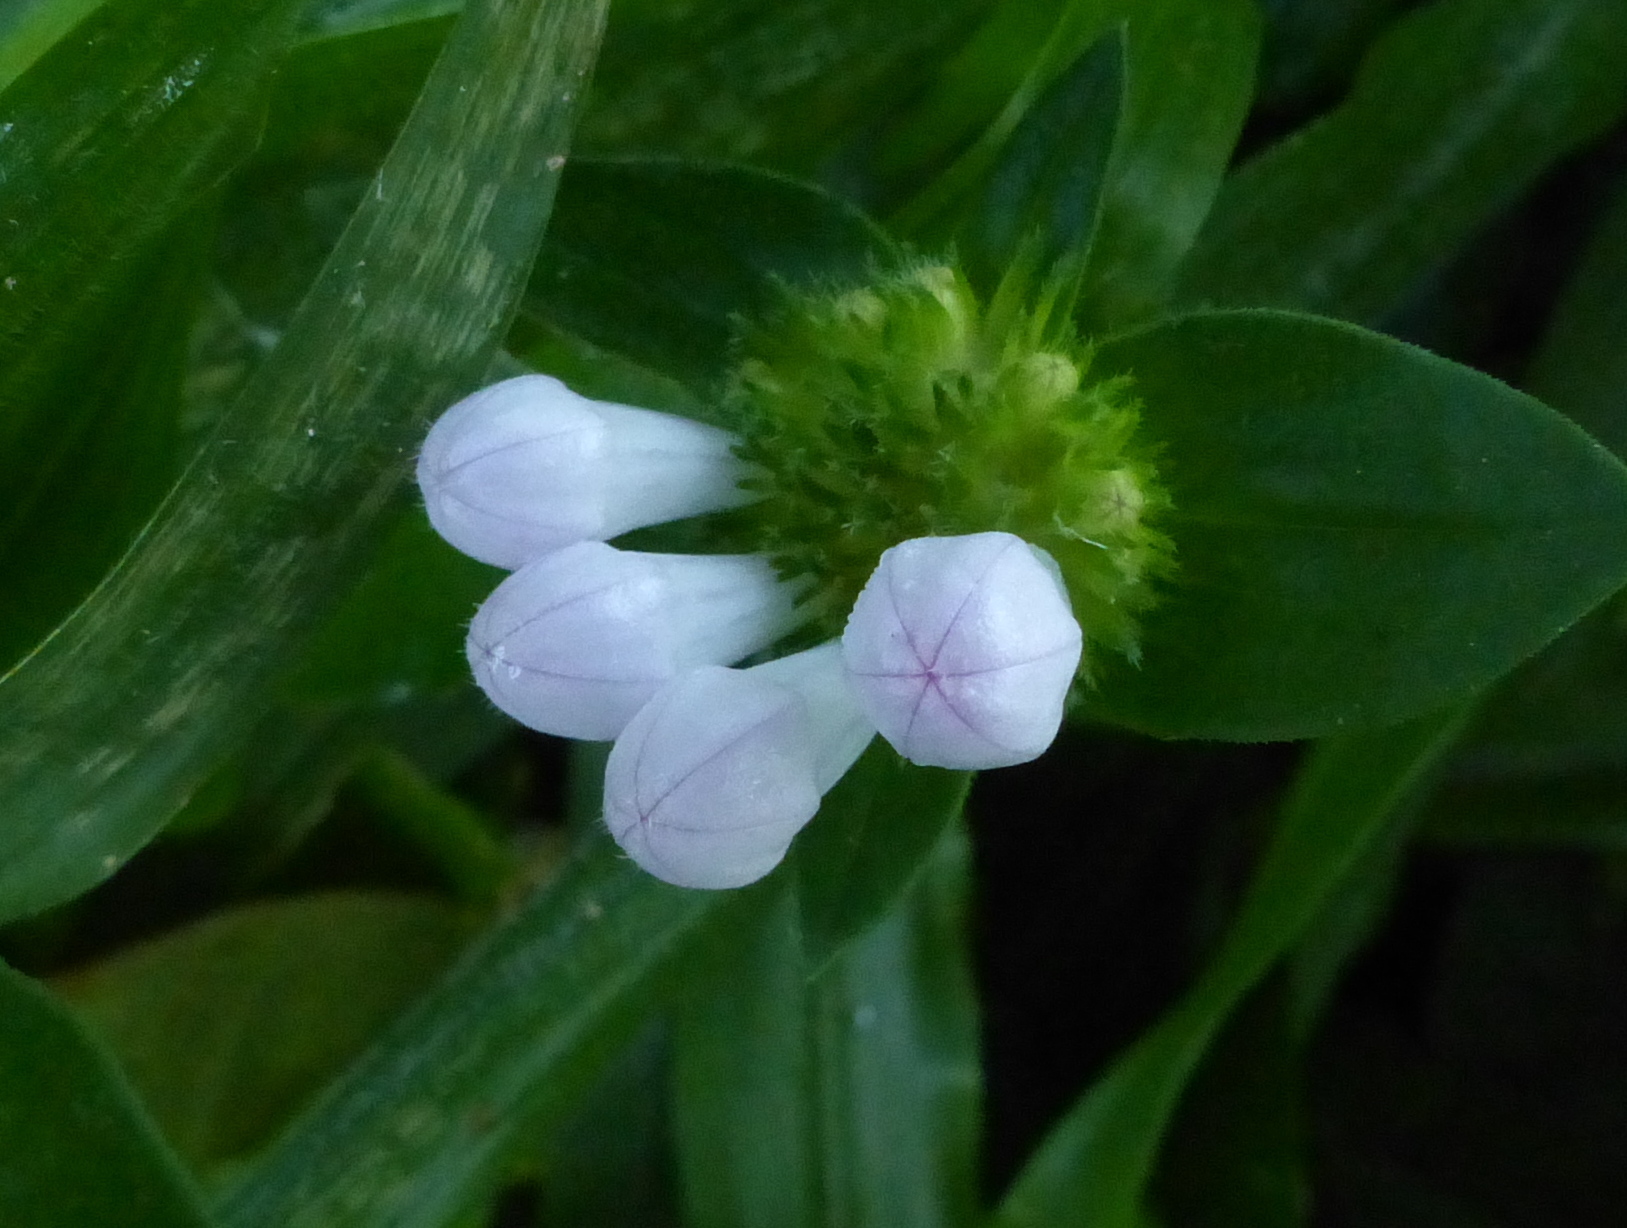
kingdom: Plantae
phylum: Tracheophyta
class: Magnoliopsida
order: Gentianales
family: Rubiaceae
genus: Richardia
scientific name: Richardia grandiflora
